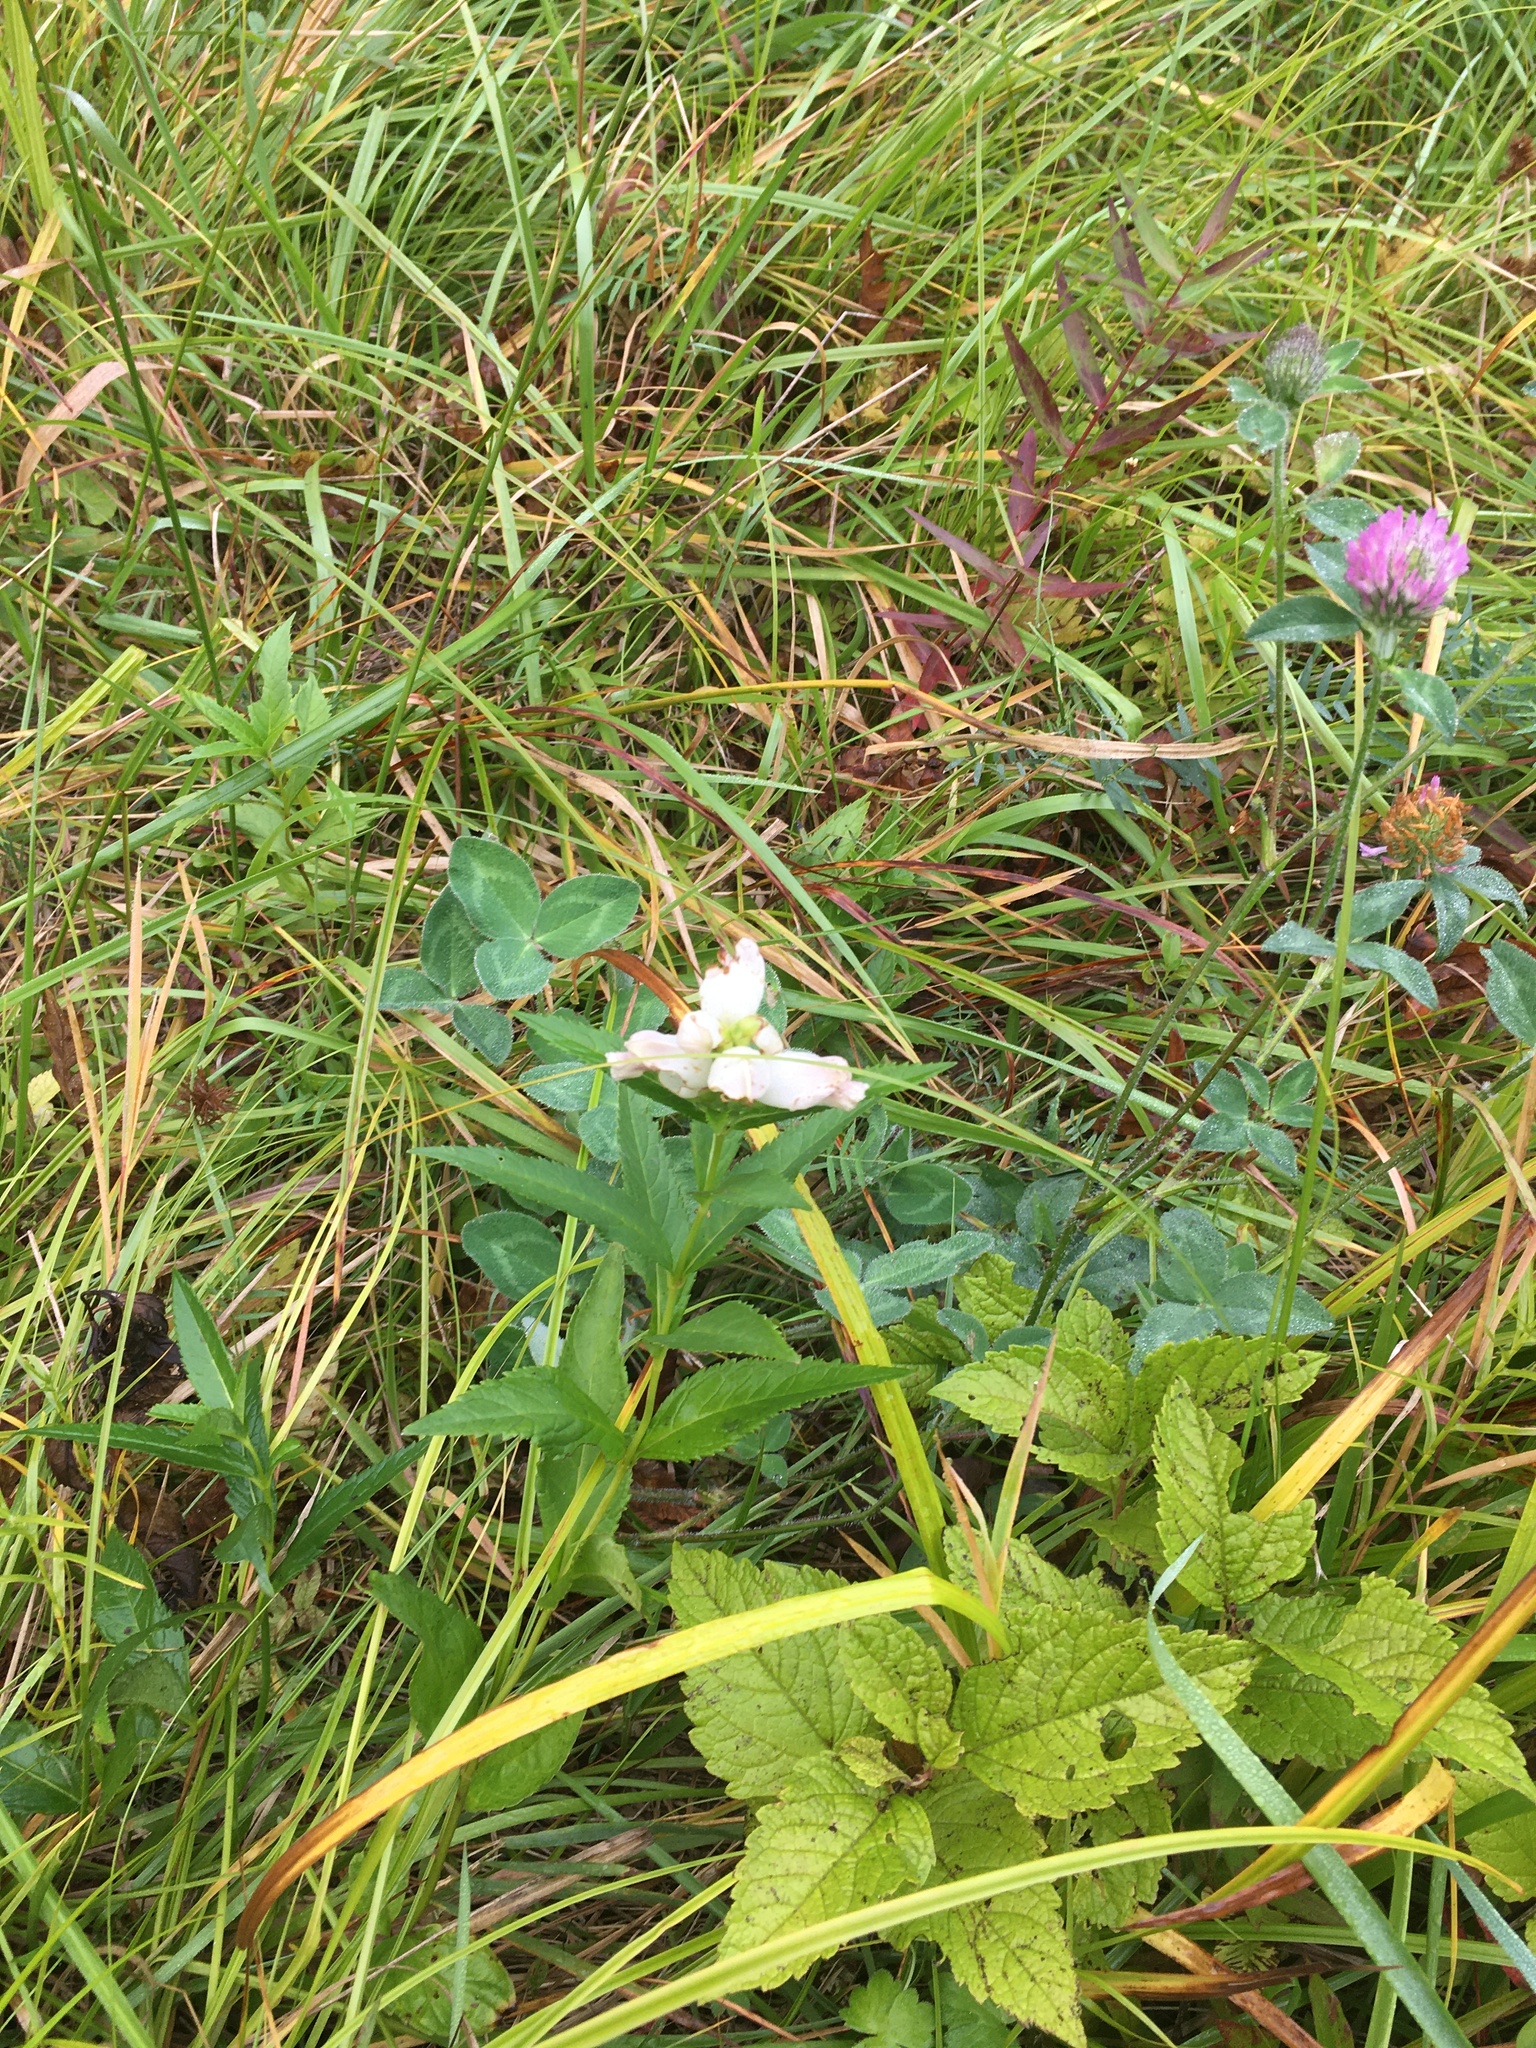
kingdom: Plantae
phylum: Tracheophyta
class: Magnoliopsida
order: Lamiales
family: Plantaginaceae
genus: Chelone
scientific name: Chelone glabra
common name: Snakehead
